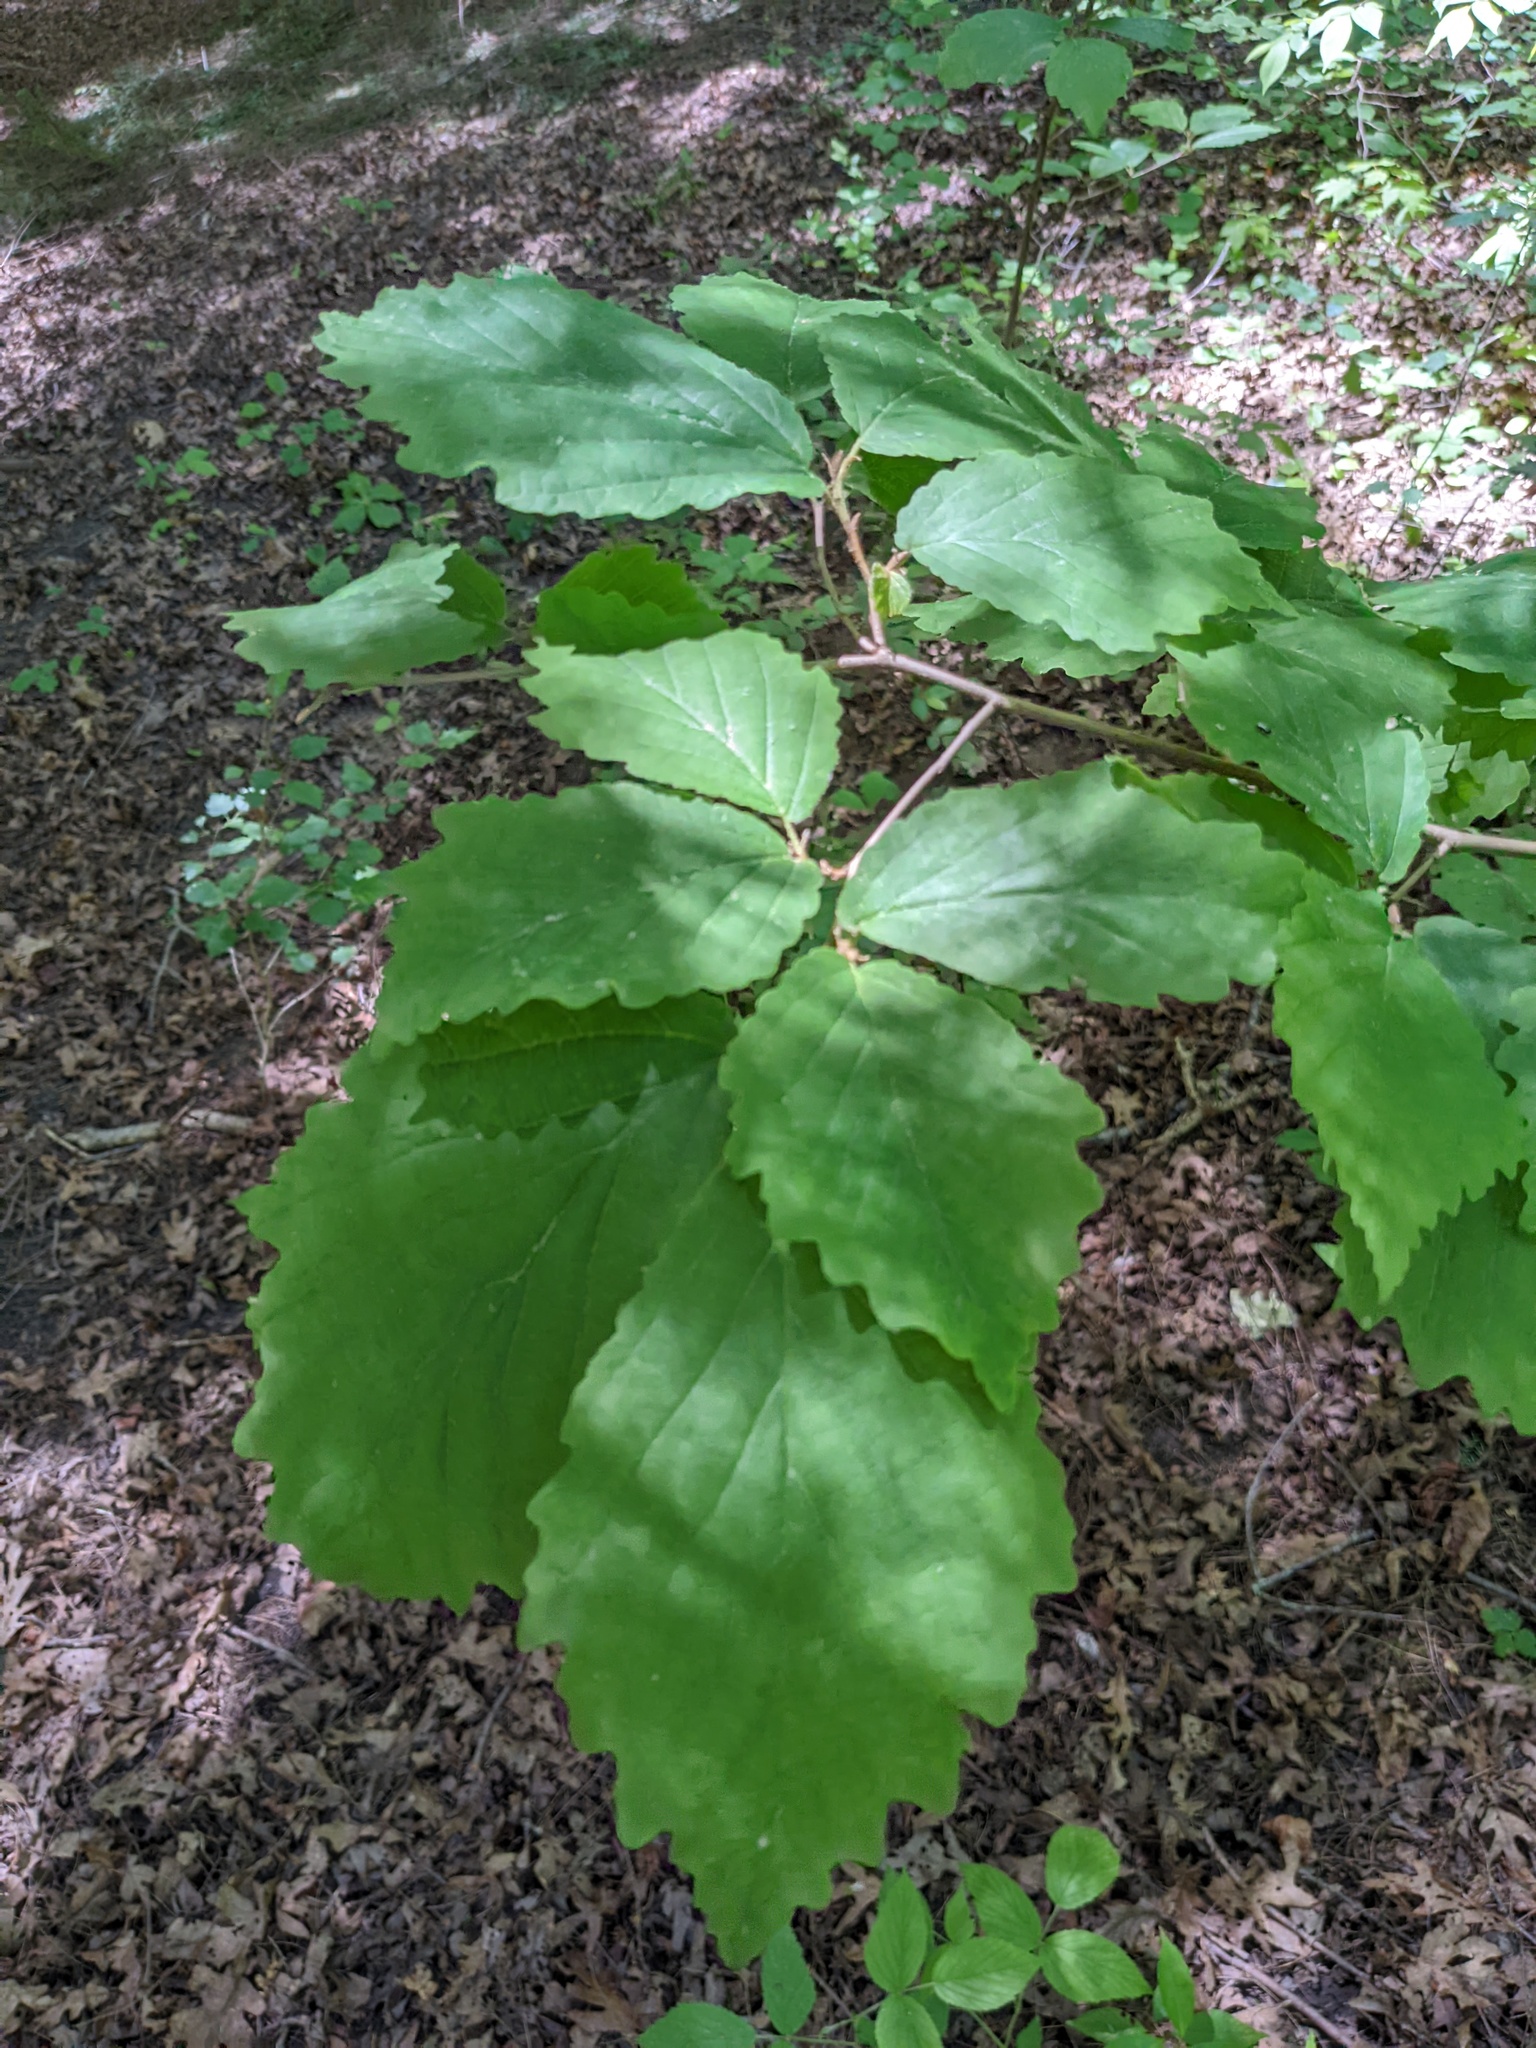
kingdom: Plantae
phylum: Tracheophyta
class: Magnoliopsida
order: Saxifragales
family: Hamamelidaceae
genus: Hamamelis
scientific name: Hamamelis virginiana
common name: Witch-hazel
